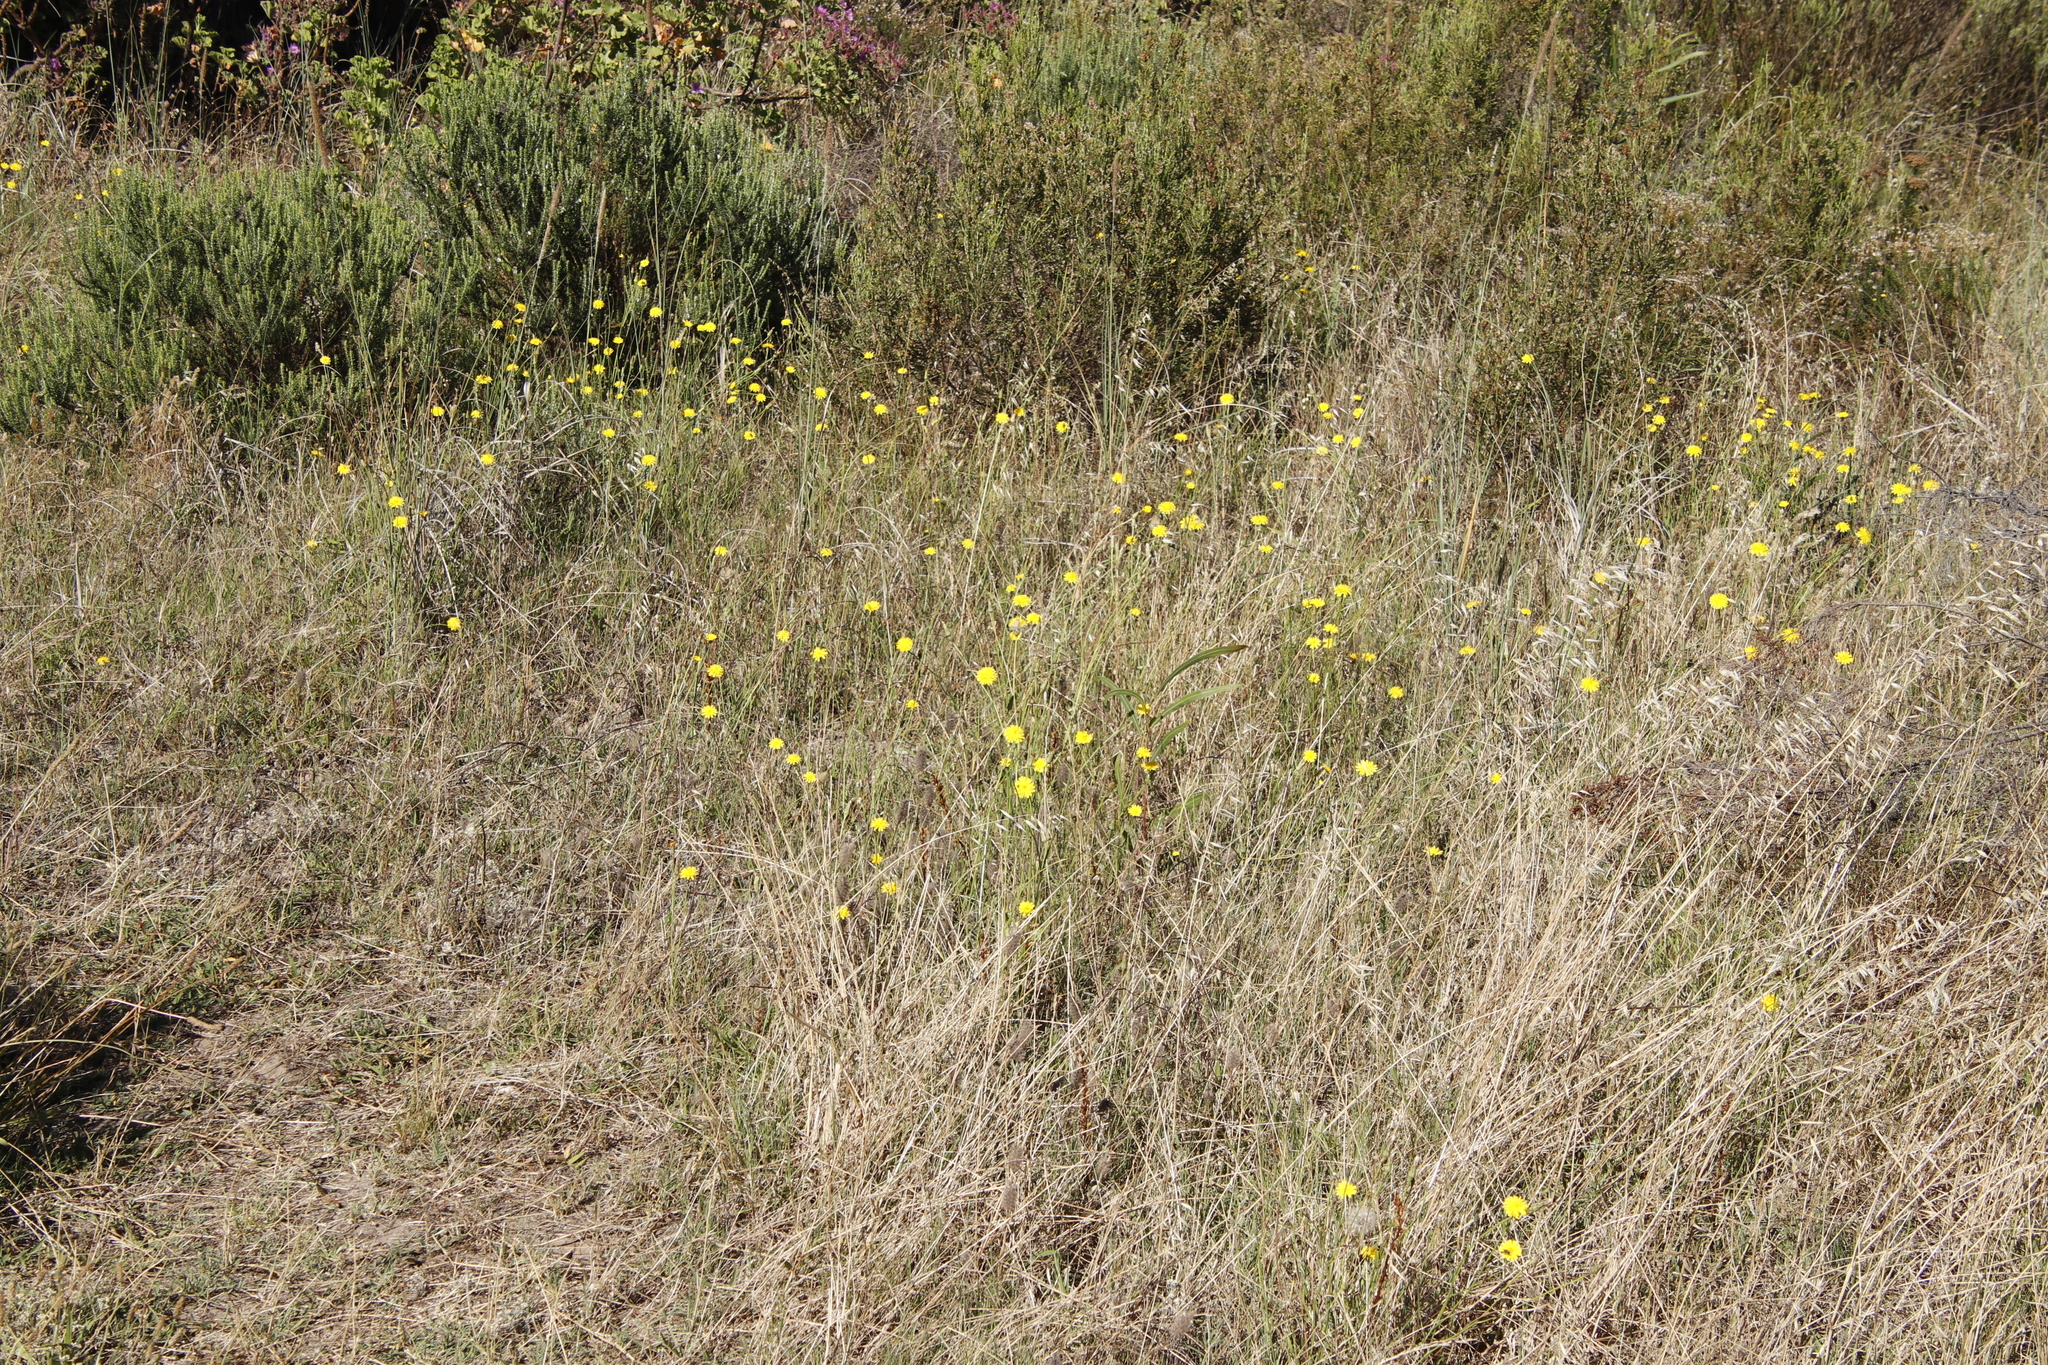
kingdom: Plantae
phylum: Tracheophyta
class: Magnoliopsida
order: Asterales
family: Asteraceae
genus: Hypochaeris
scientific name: Hypochaeris radicata
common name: Flatweed
